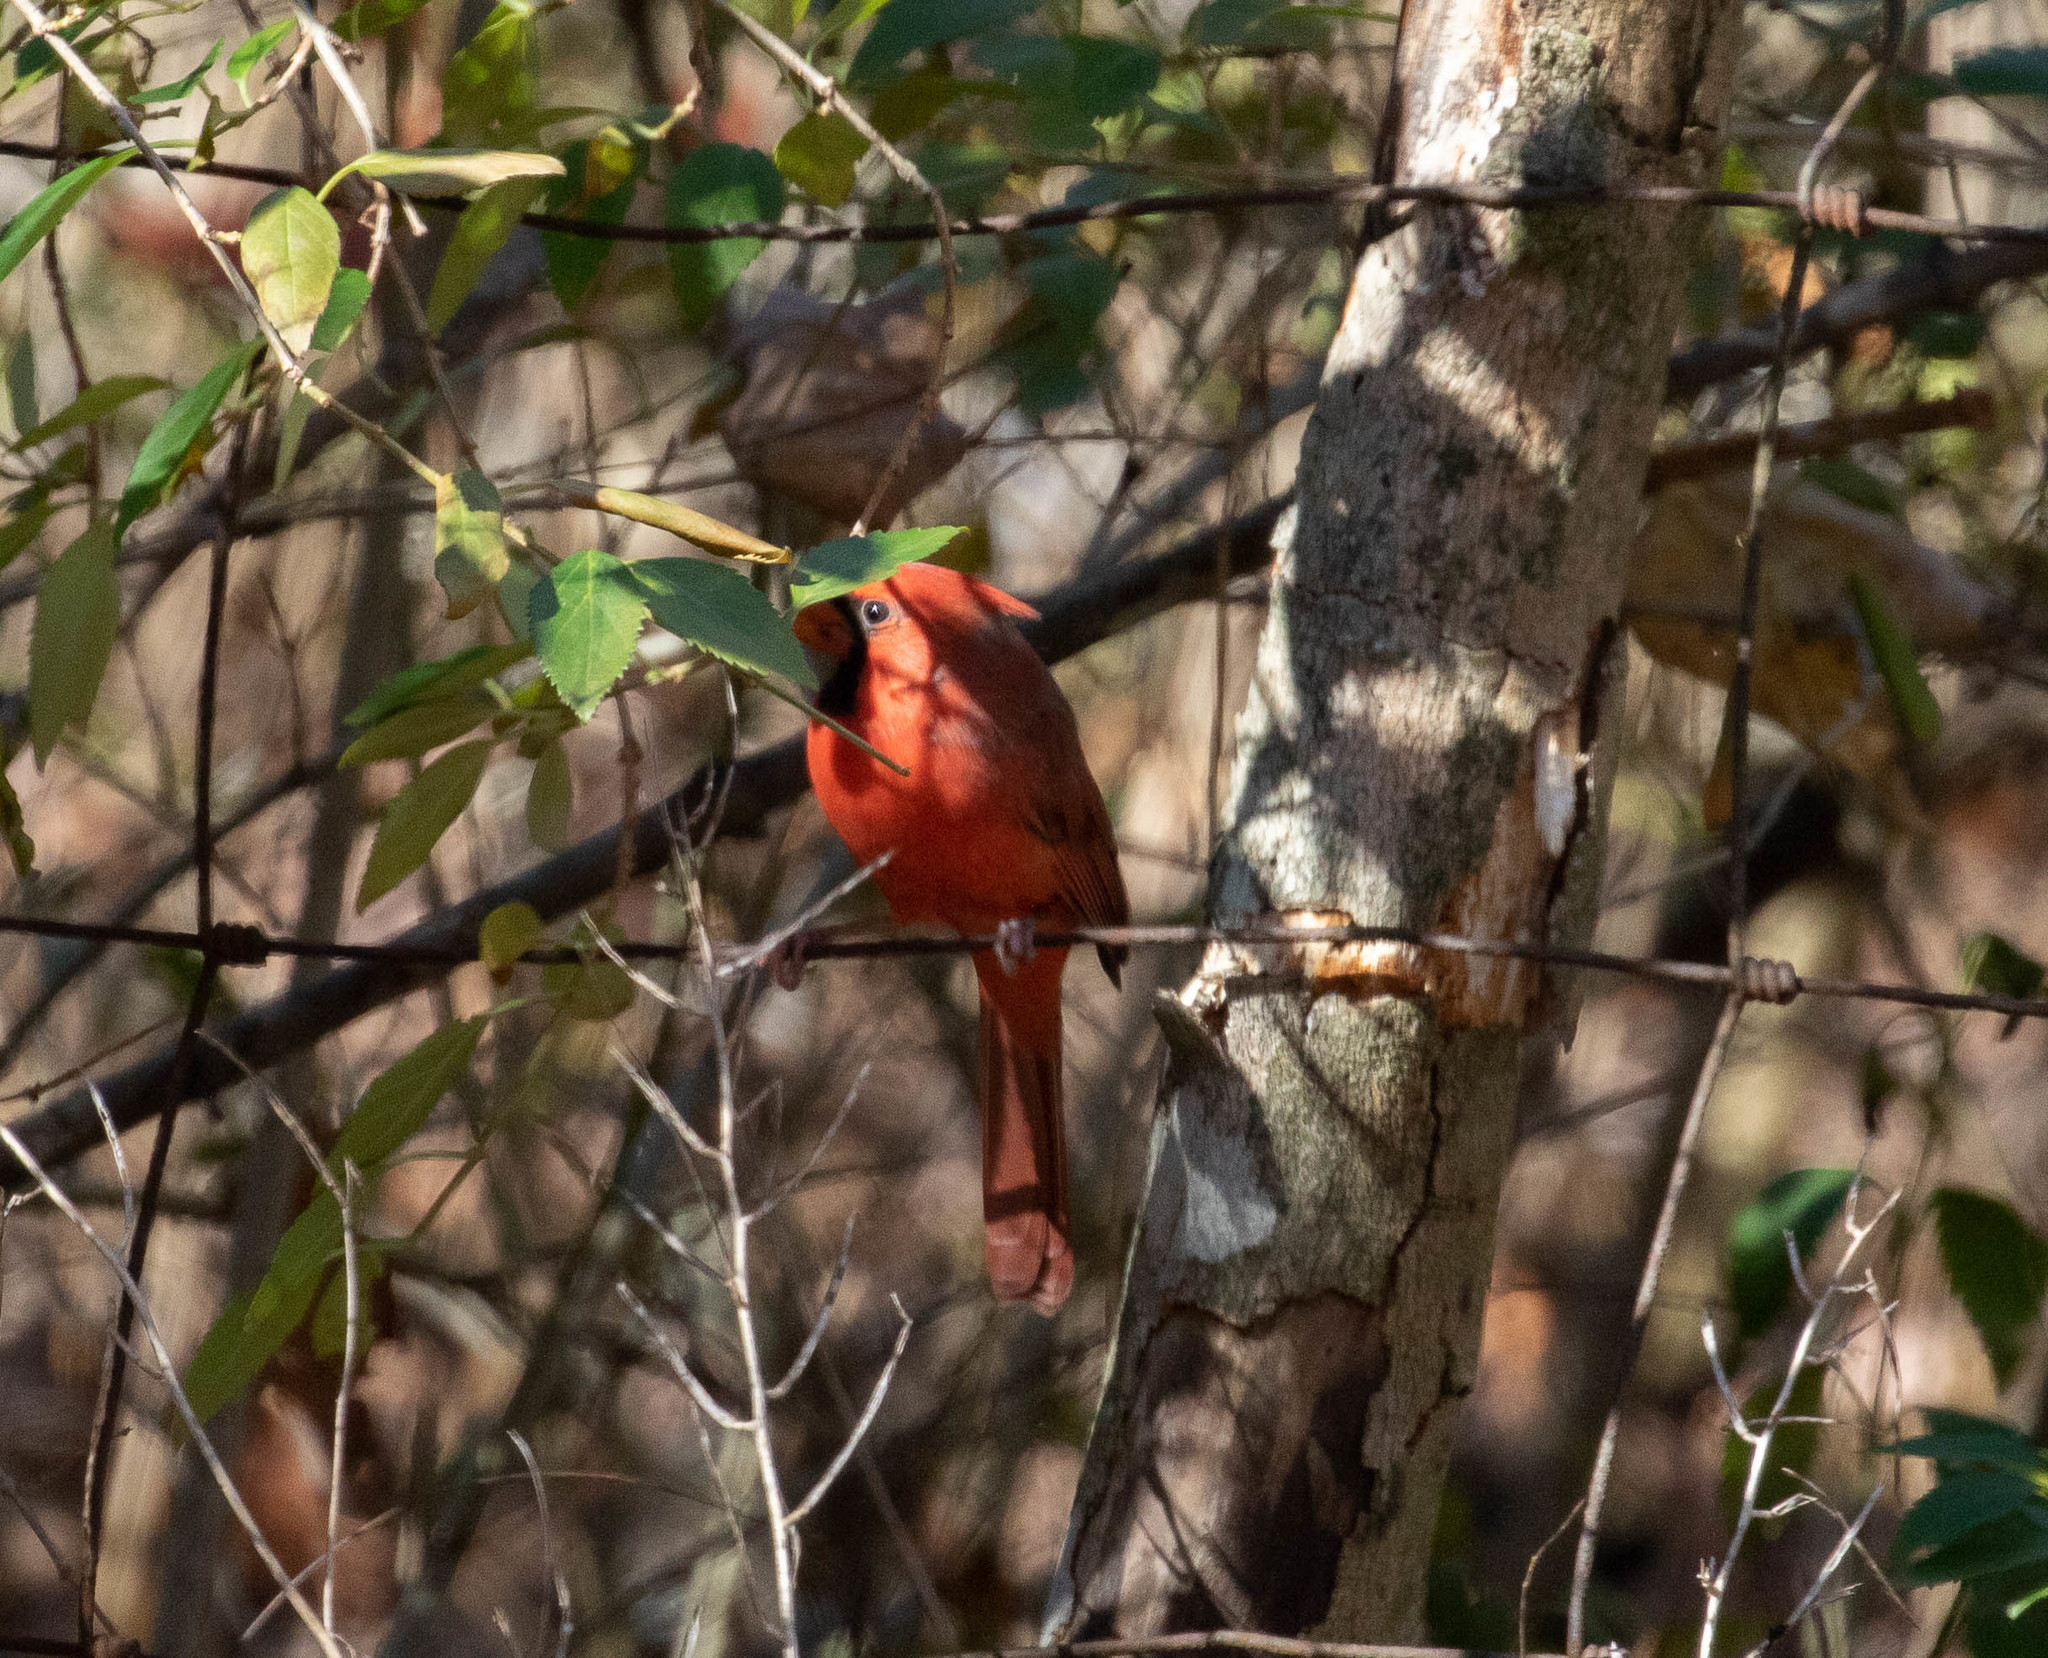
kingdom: Animalia
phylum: Chordata
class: Aves
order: Passeriformes
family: Cardinalidae
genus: Cardinalis
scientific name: Cardinalis cardinalis
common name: Northern cardinal
